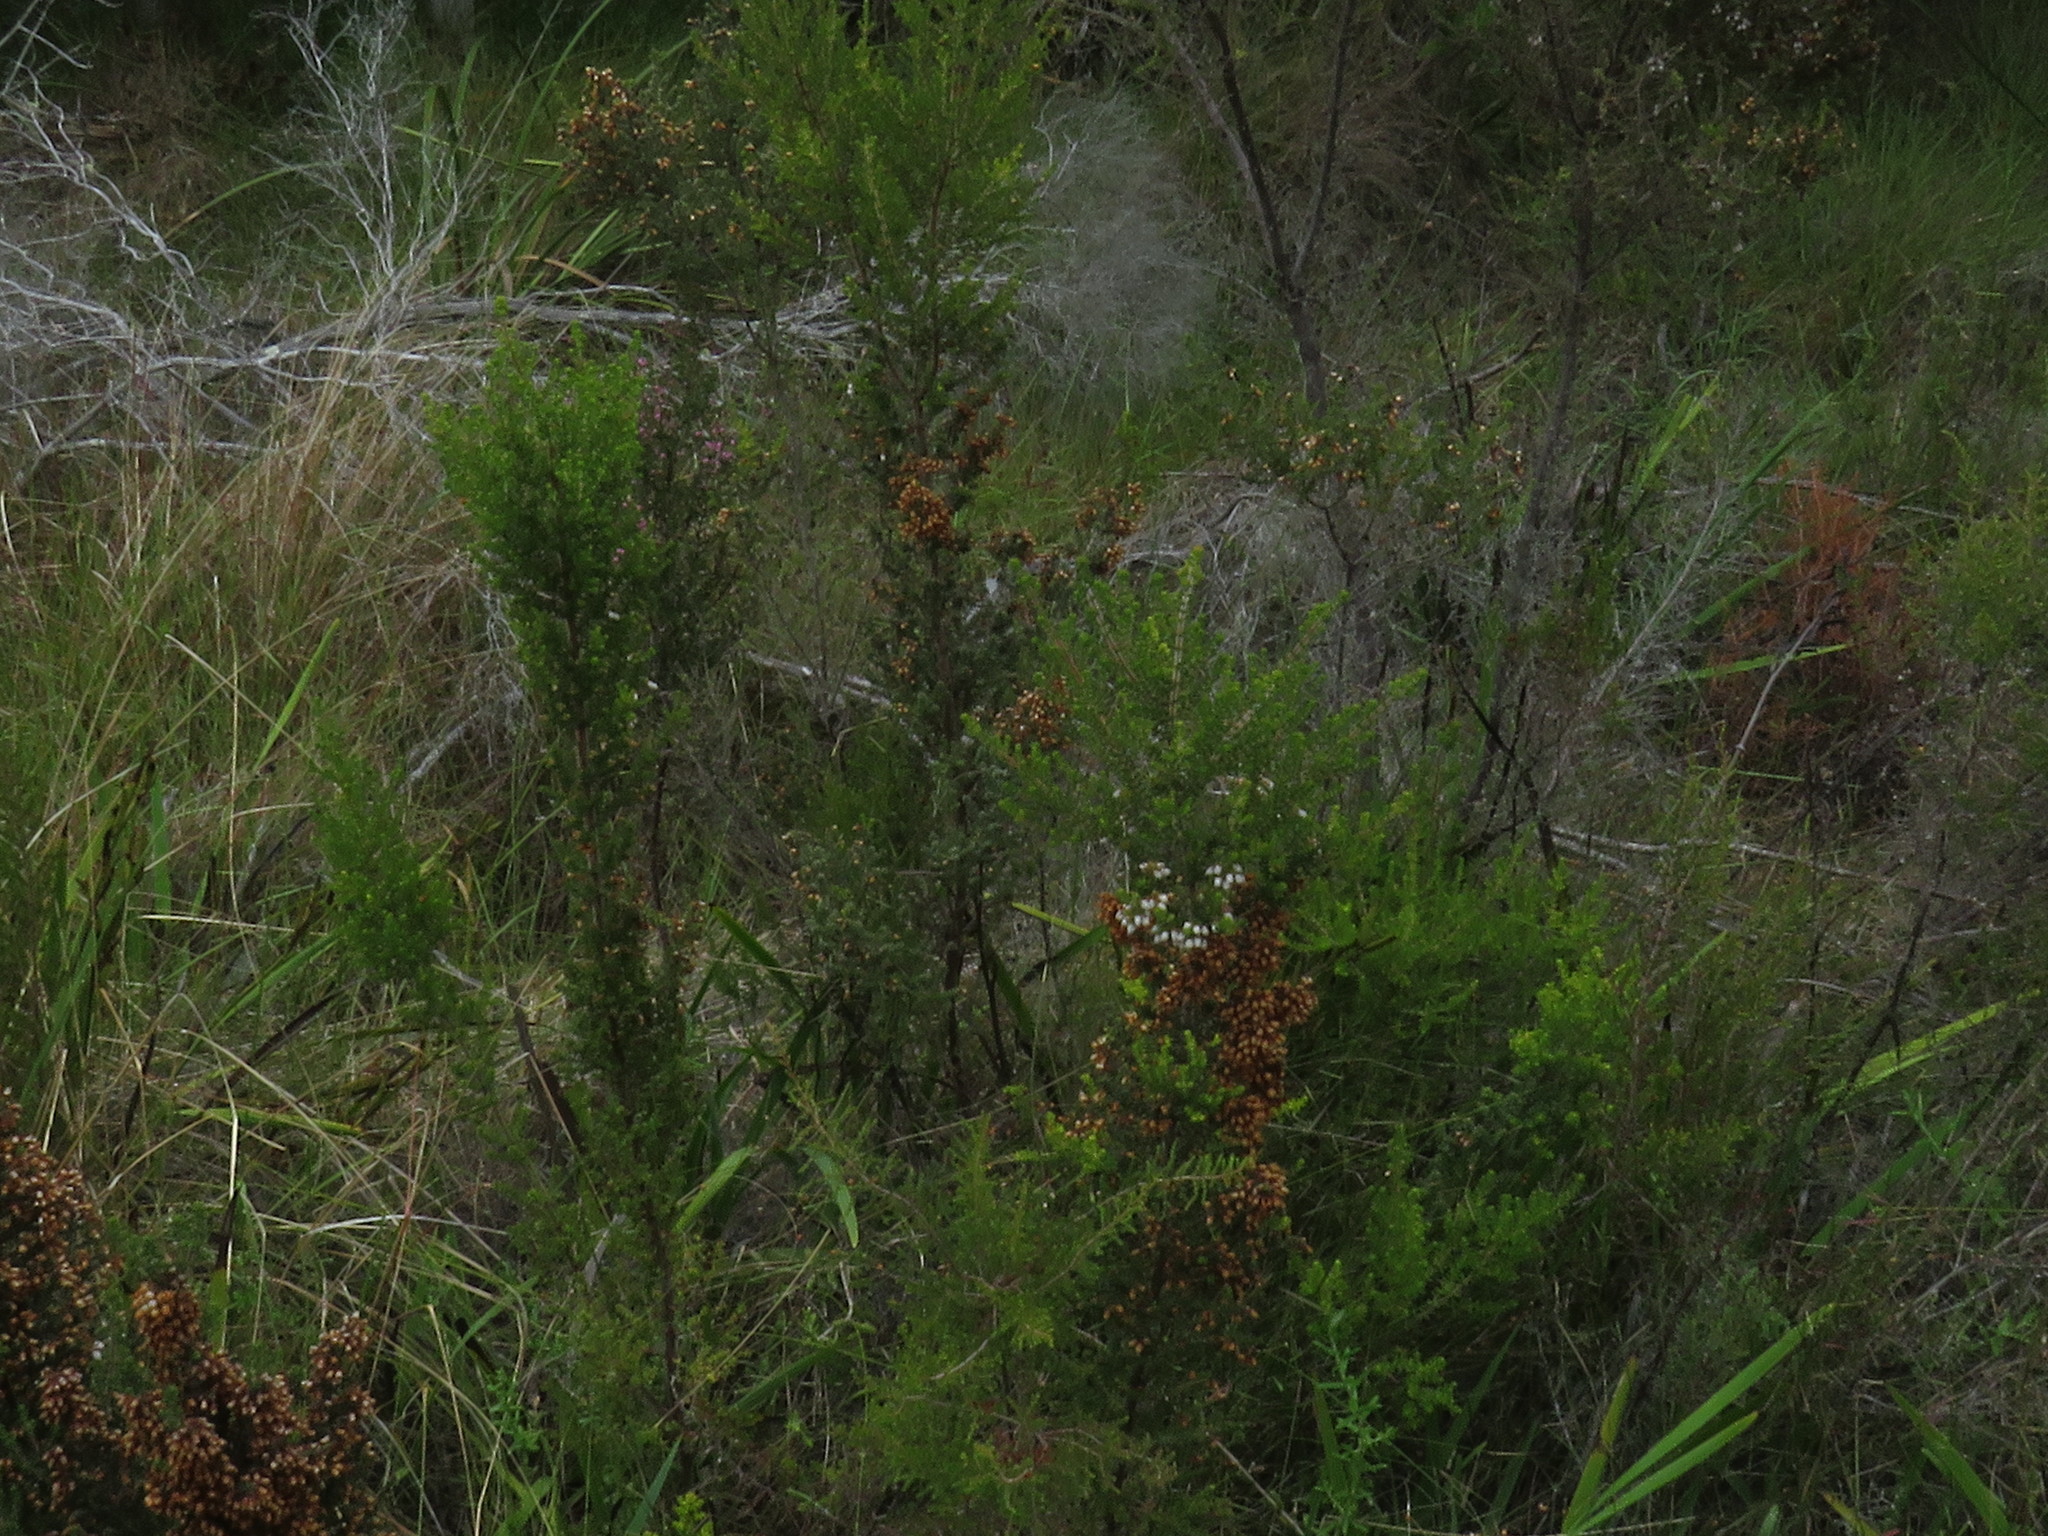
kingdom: Plantae
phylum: Tracheophyta
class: Magnoliopsida
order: Ericales
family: Ericaceae
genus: Erica
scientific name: Erica scabriuscula
